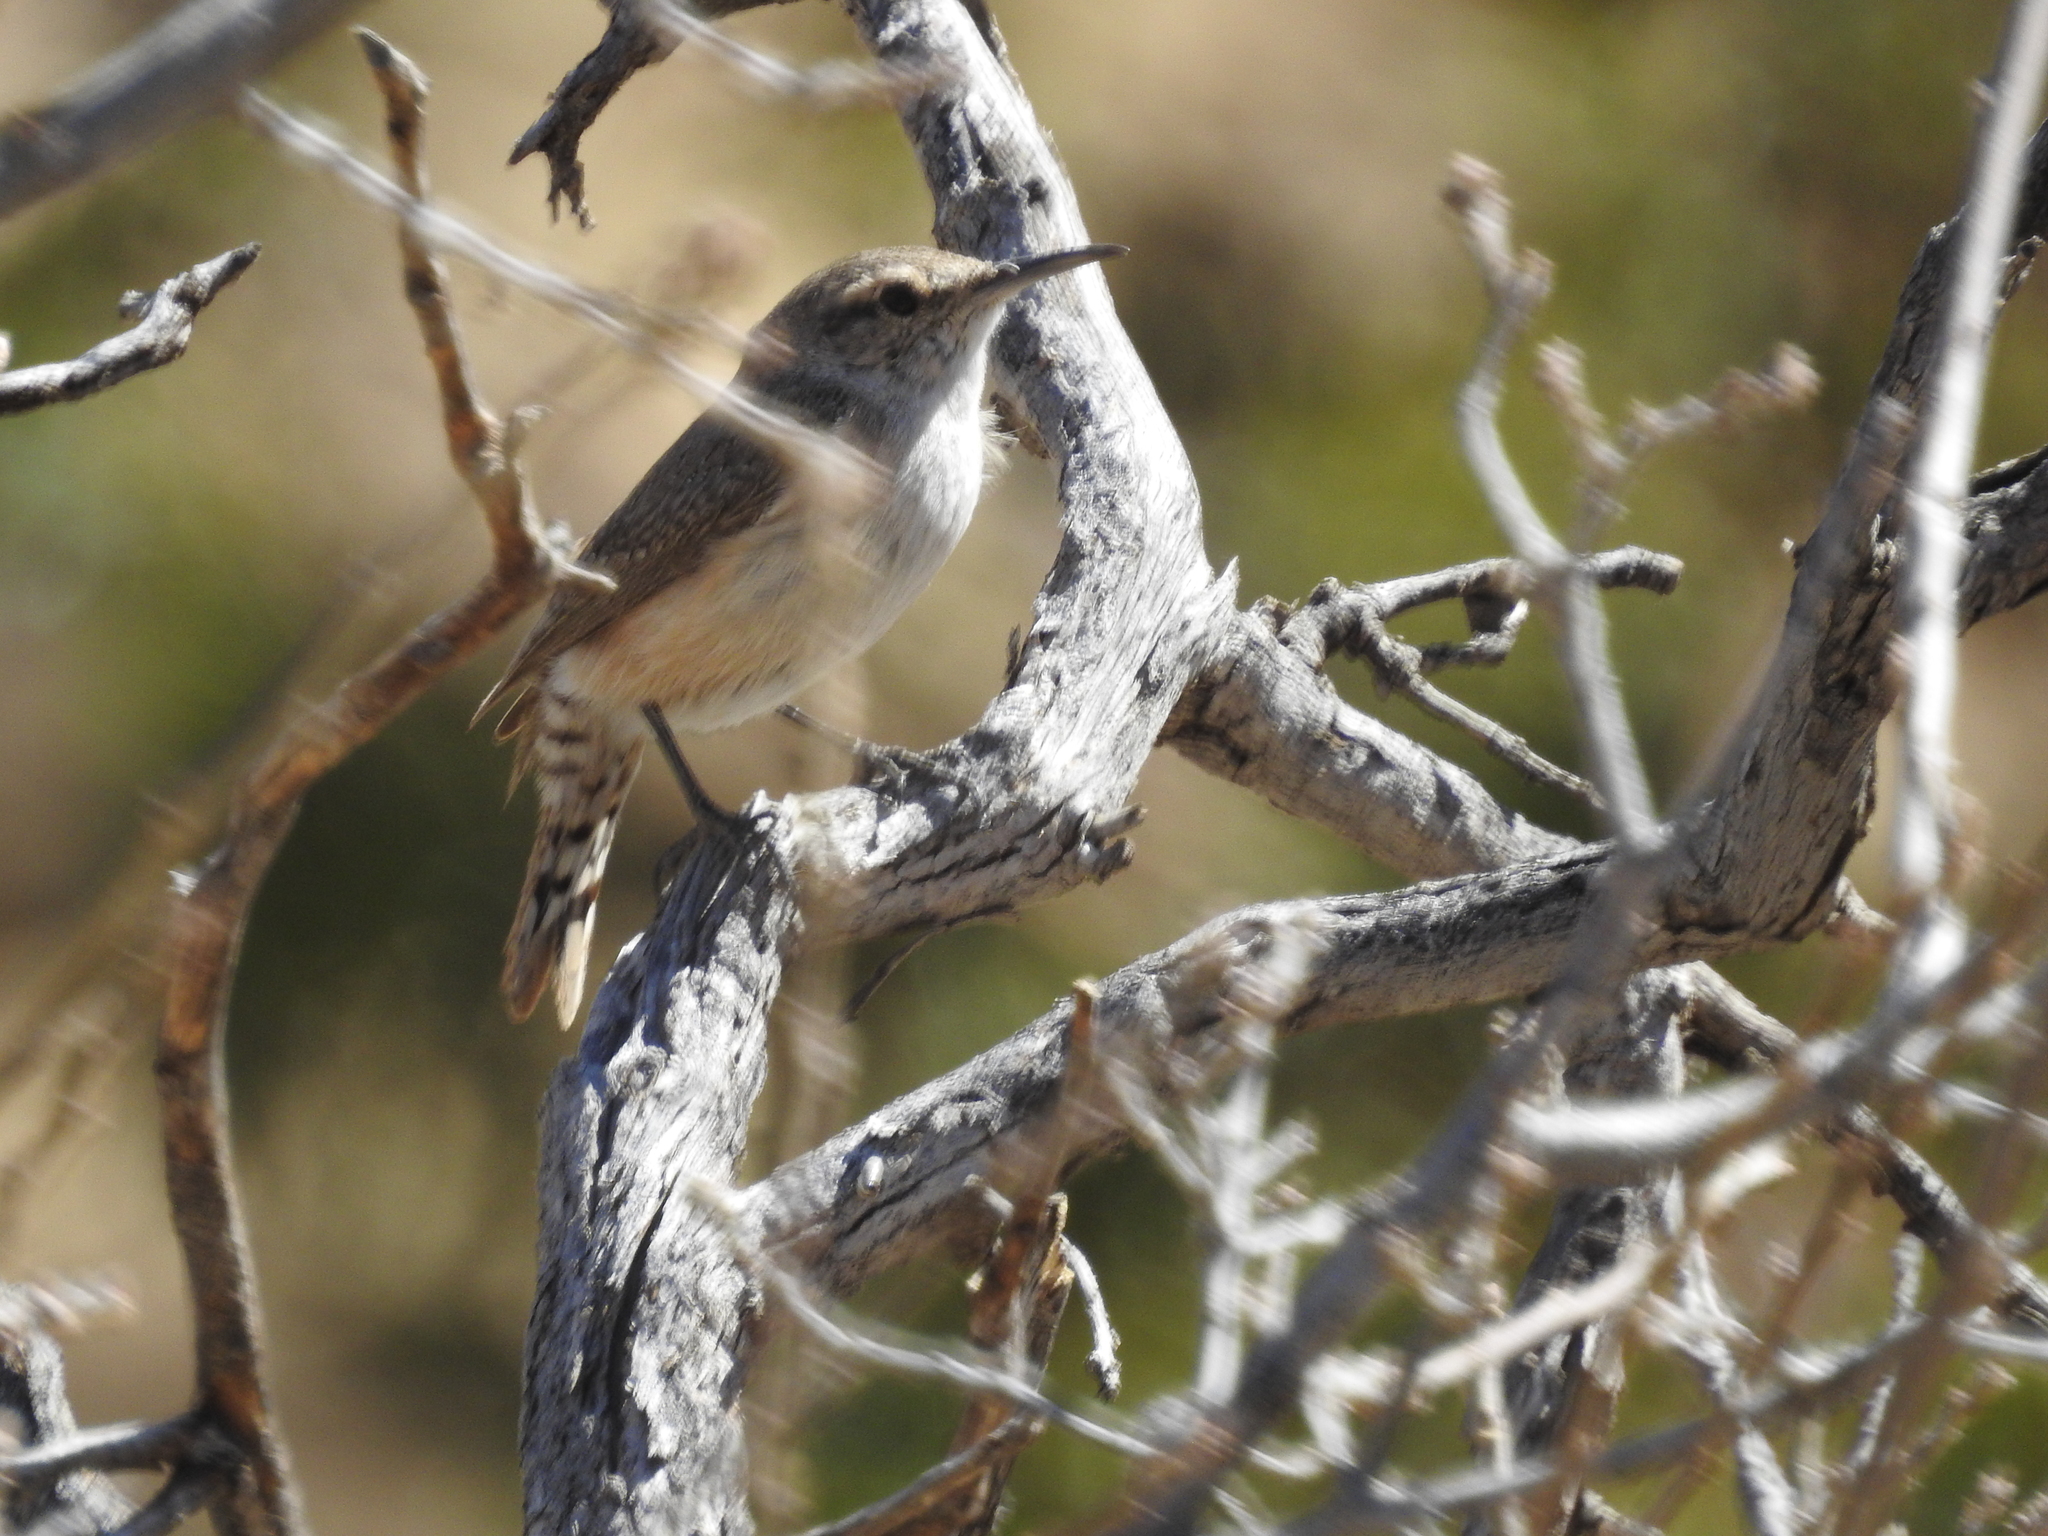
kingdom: Animalia
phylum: Chordata
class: Aves
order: Passeriformes
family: Troglodytidae
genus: Salpinctes
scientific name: Salpinctes obsoletus
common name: Rock wren
